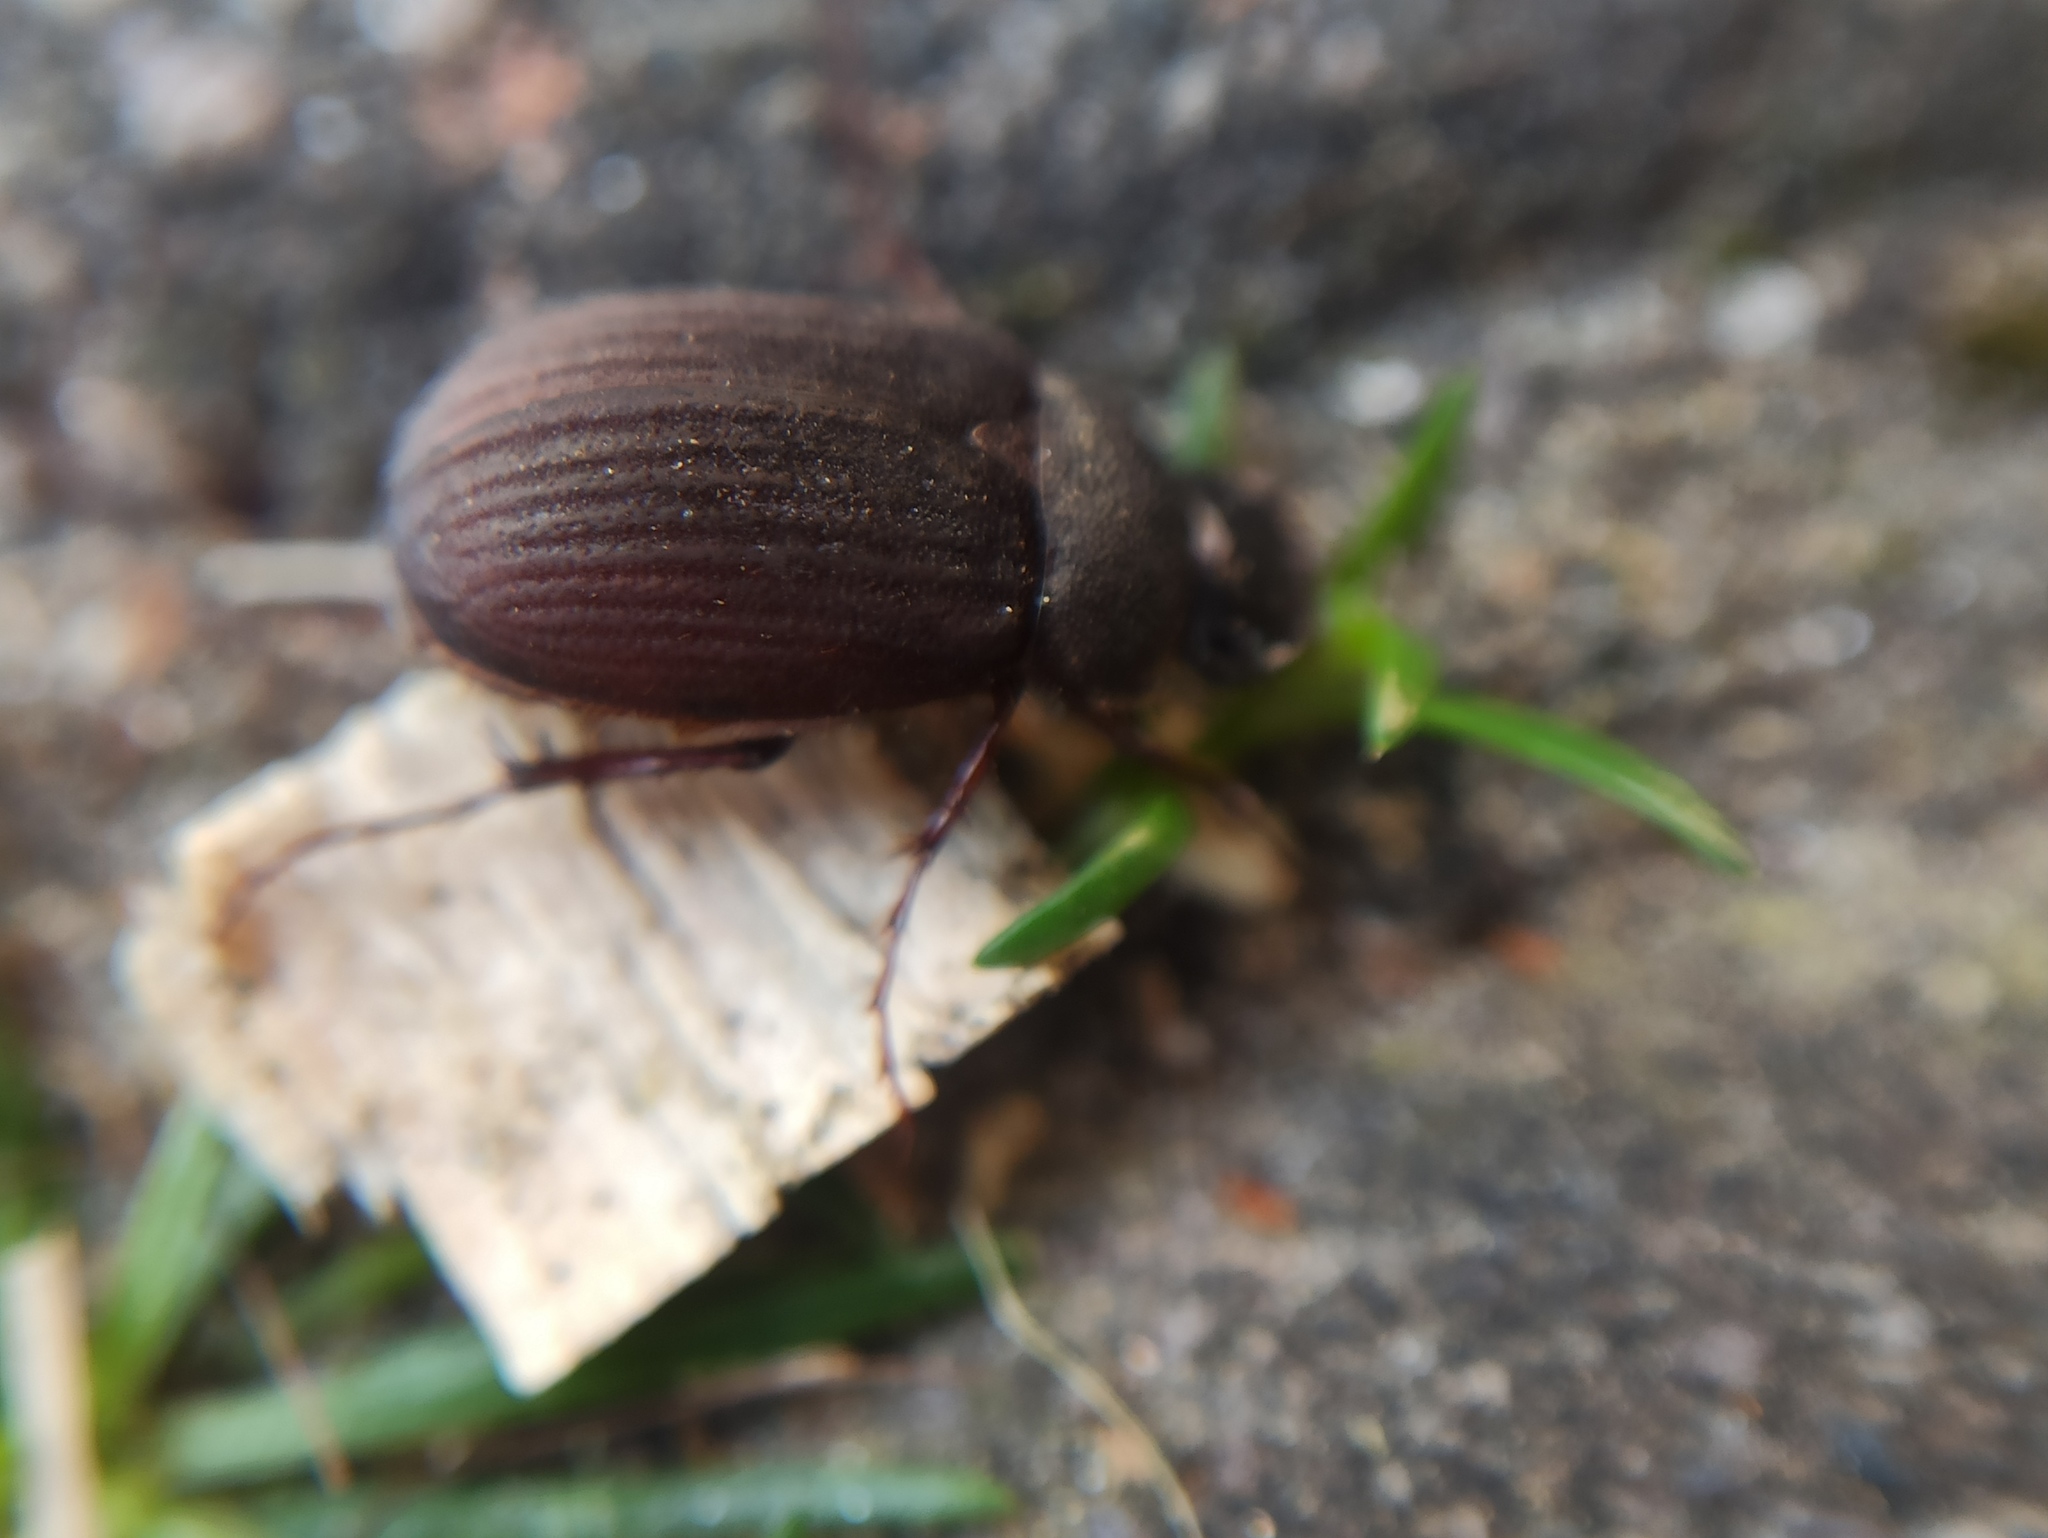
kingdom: Animalia
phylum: Arthropoda
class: Insecta
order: Coleoptera
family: Scarabaeidae
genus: Maladera
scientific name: Maladera holosericea
